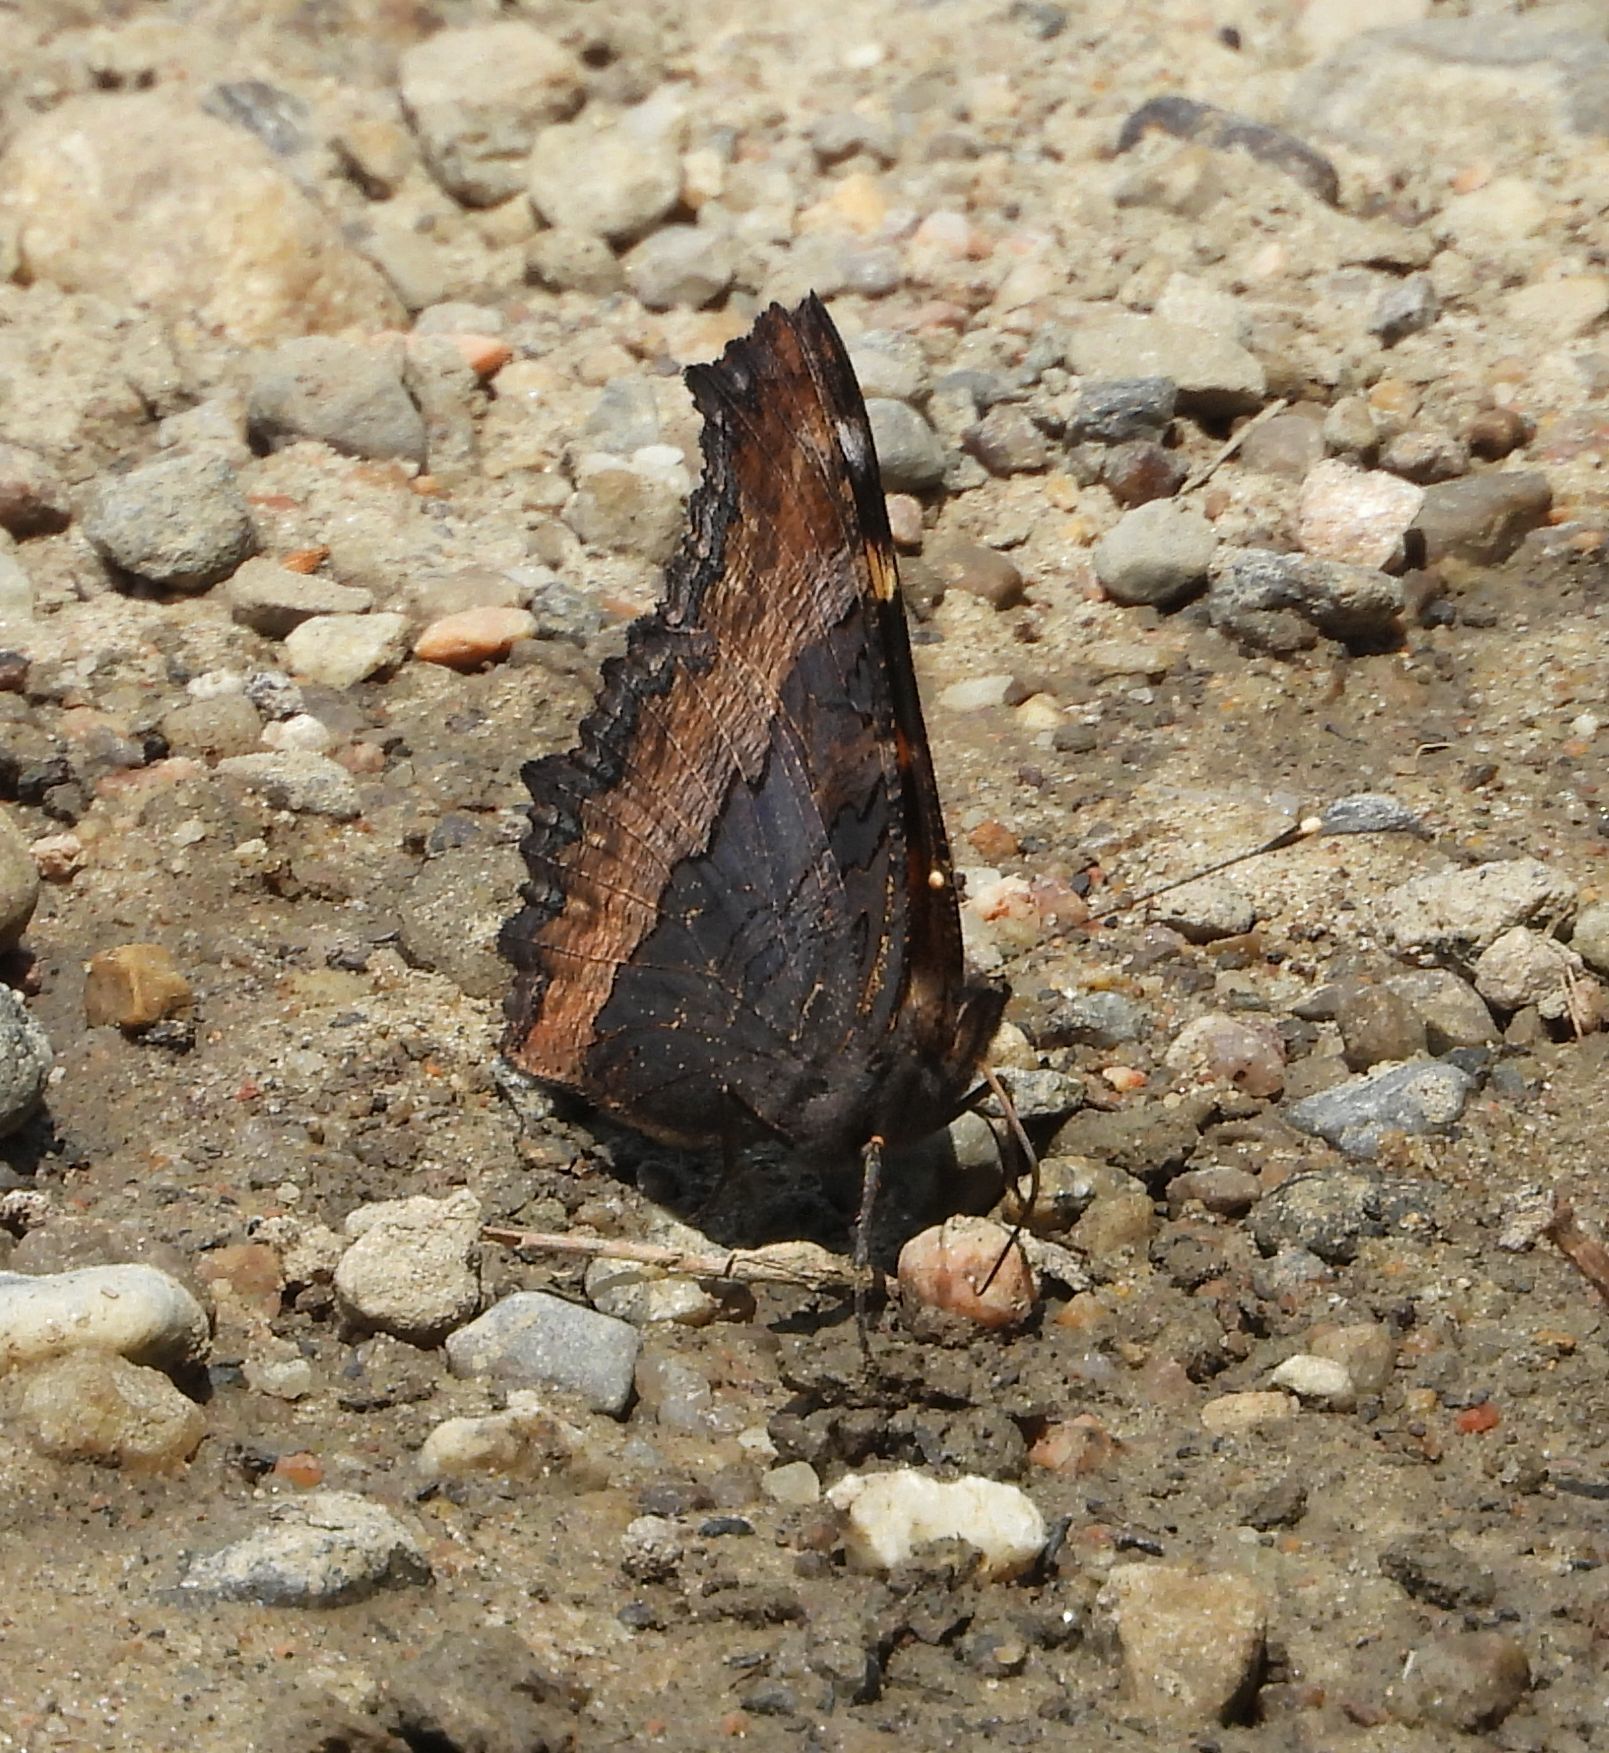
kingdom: Animalia
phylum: Arthropoda
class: Insecta
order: Lepidoptera
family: Nymphalidae
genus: Aglais
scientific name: Aglais milberti
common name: Milbert's tortoiseshell
